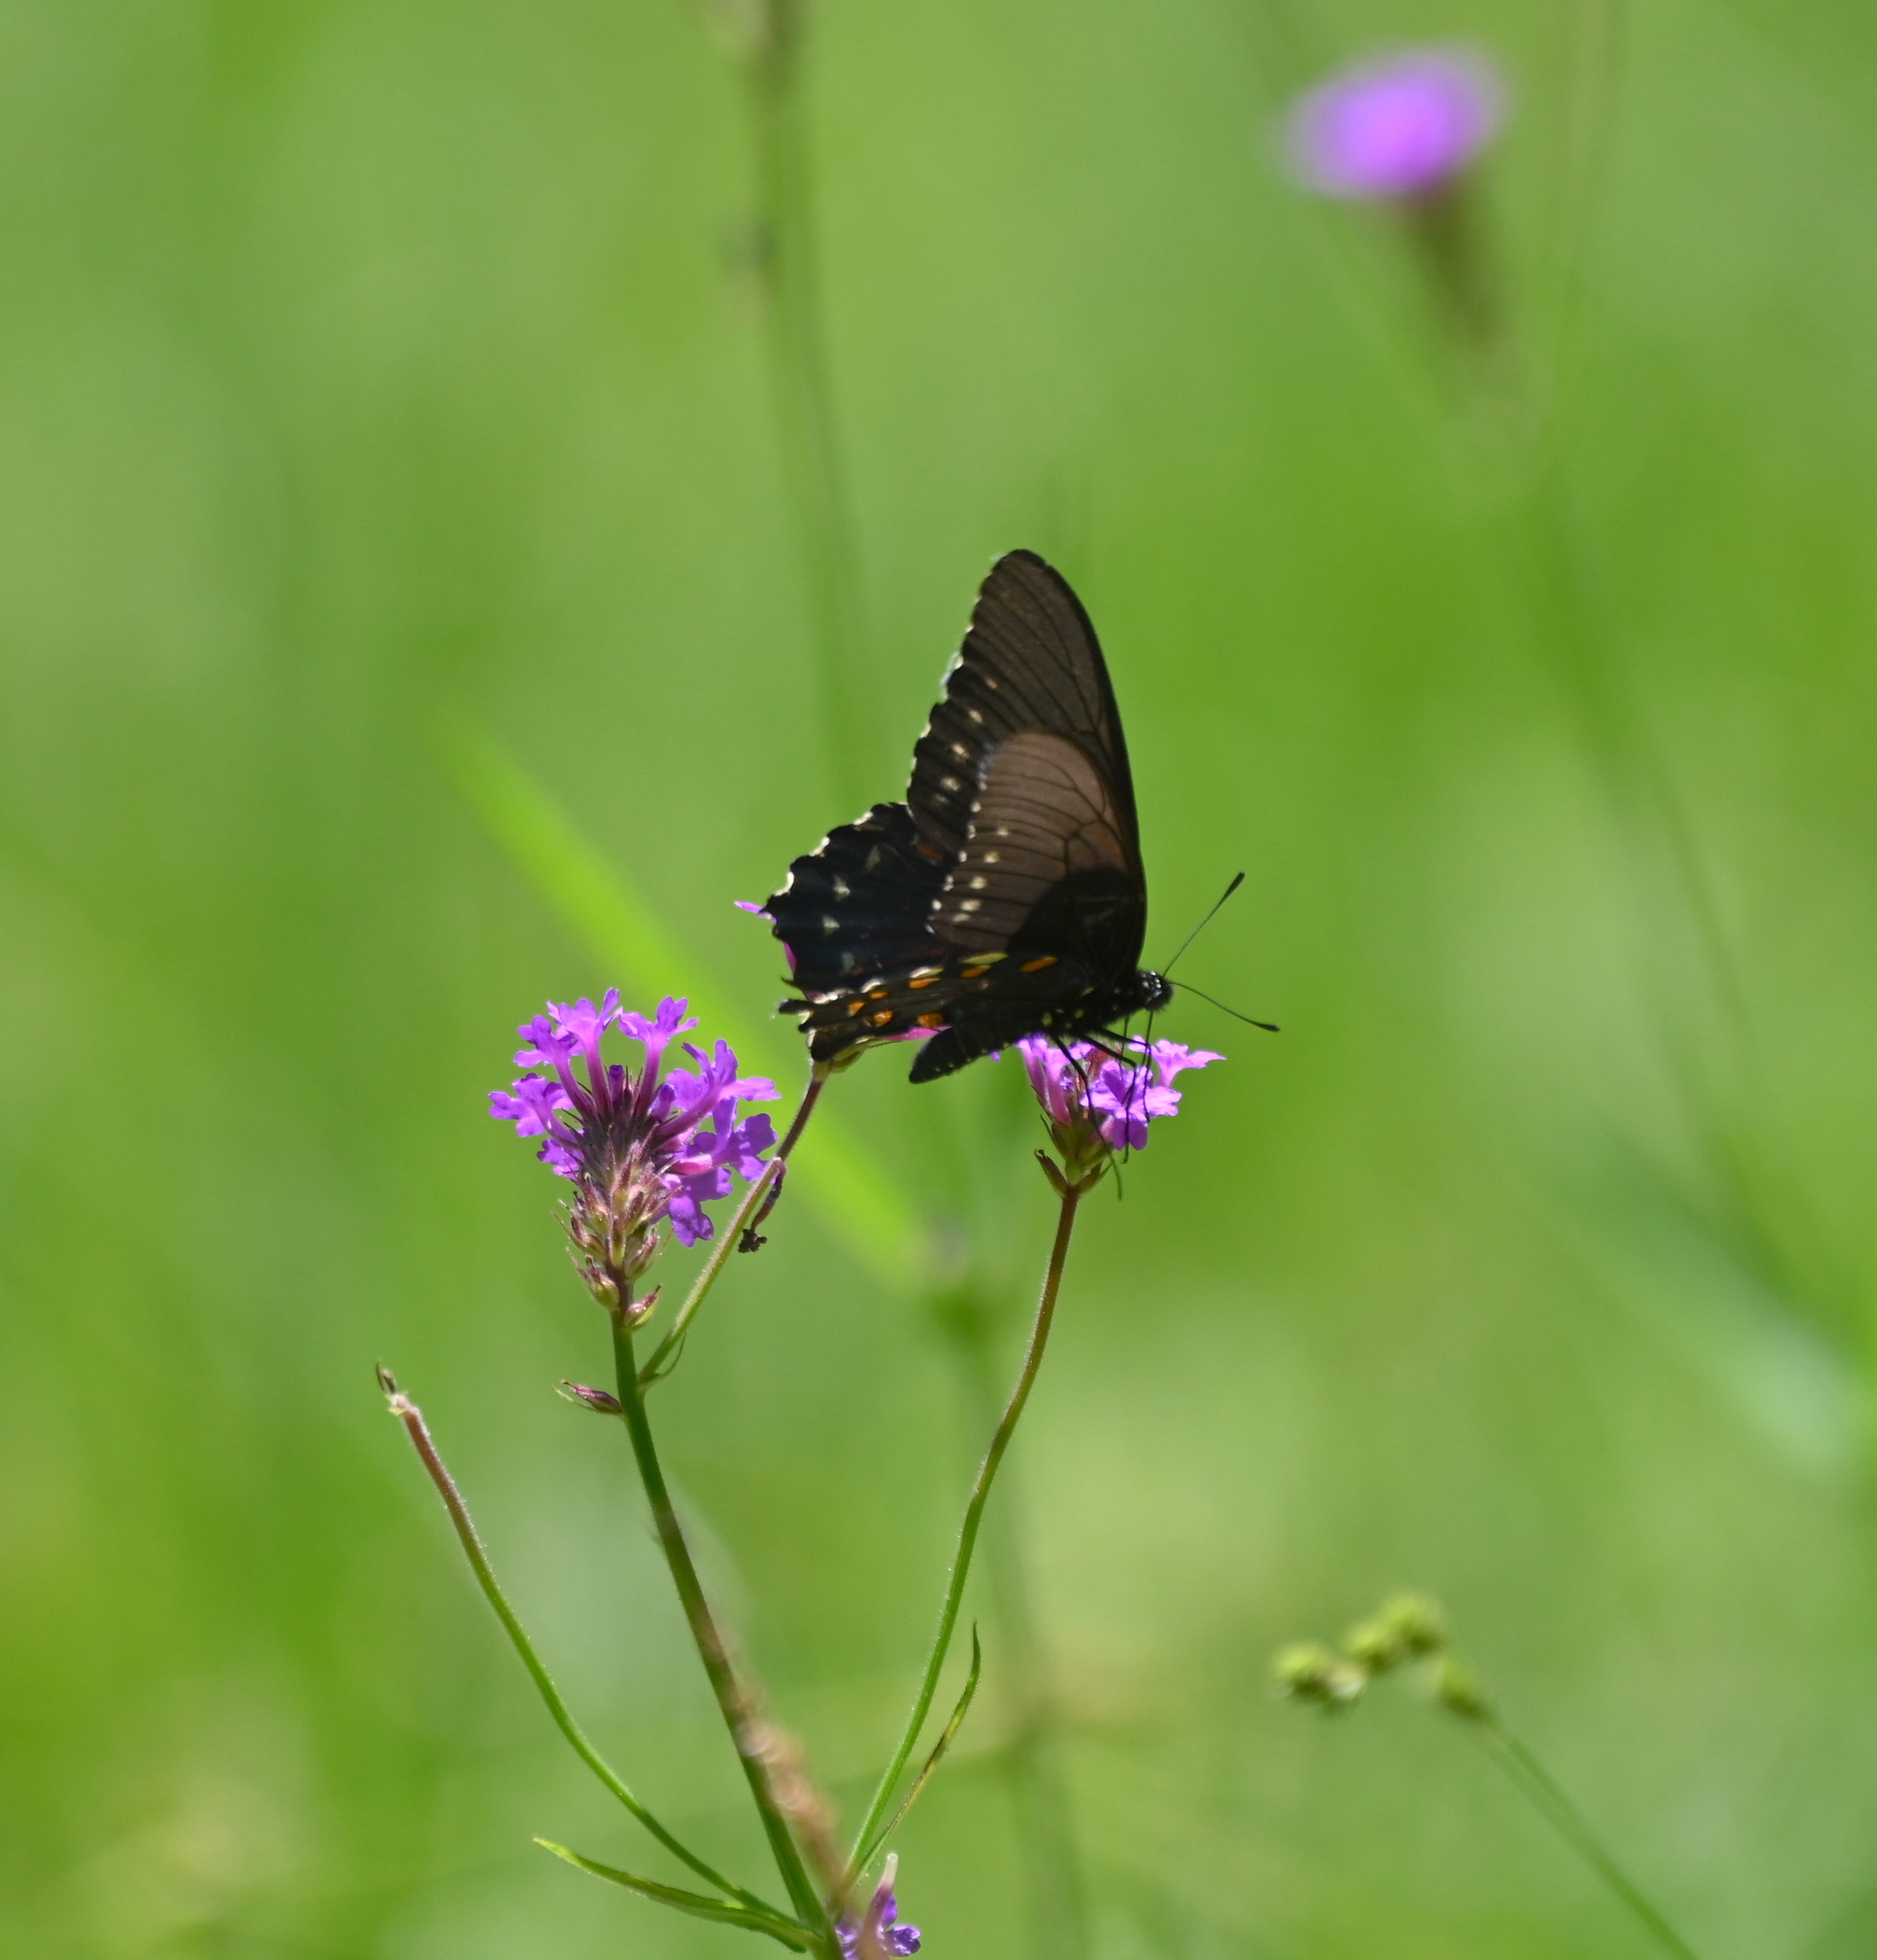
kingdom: Animalia
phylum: Arthropoda
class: Insecta
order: Lepidoptera
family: Papilionidae
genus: Battus
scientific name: Battus philenor
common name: Pipevine swallowtail
